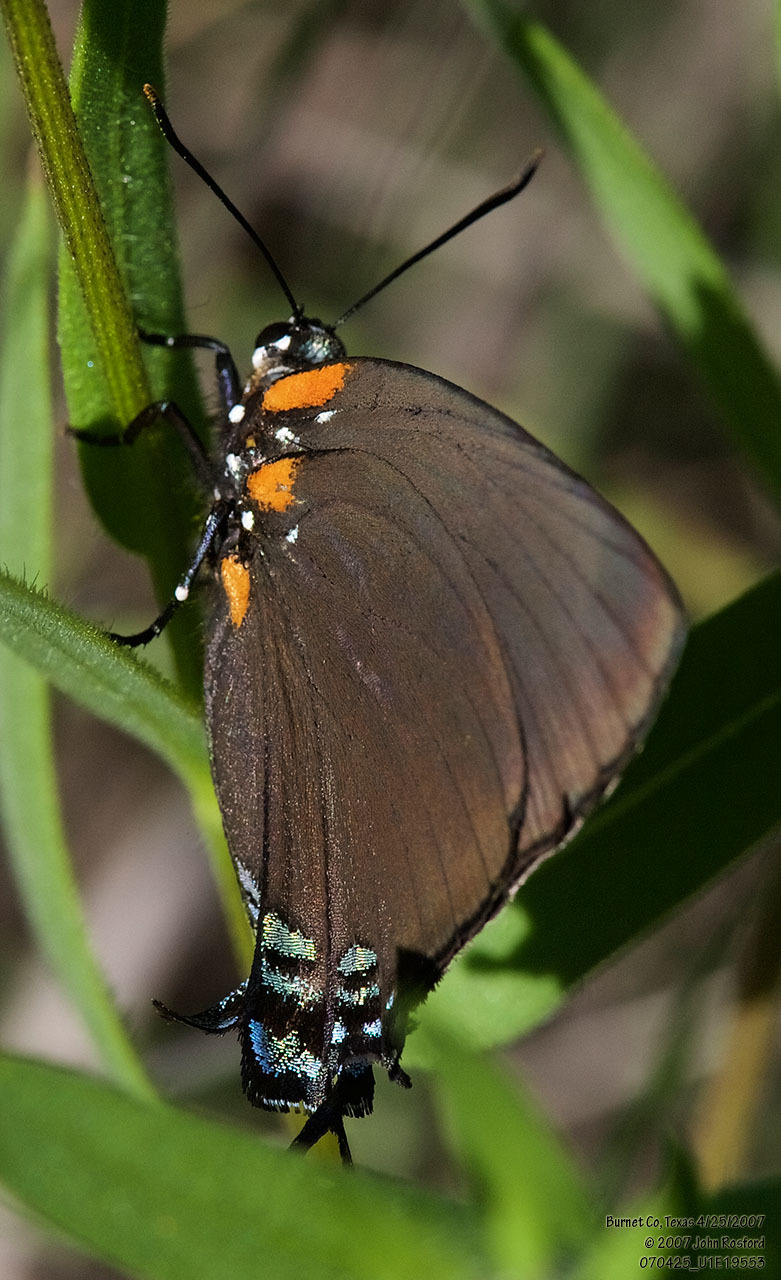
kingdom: Animalia
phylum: Arthropoda
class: Insecta
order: Lepidoptera
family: Lycaenidae
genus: Atlides
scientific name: Atlides halesus
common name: Great purple hairstreak
